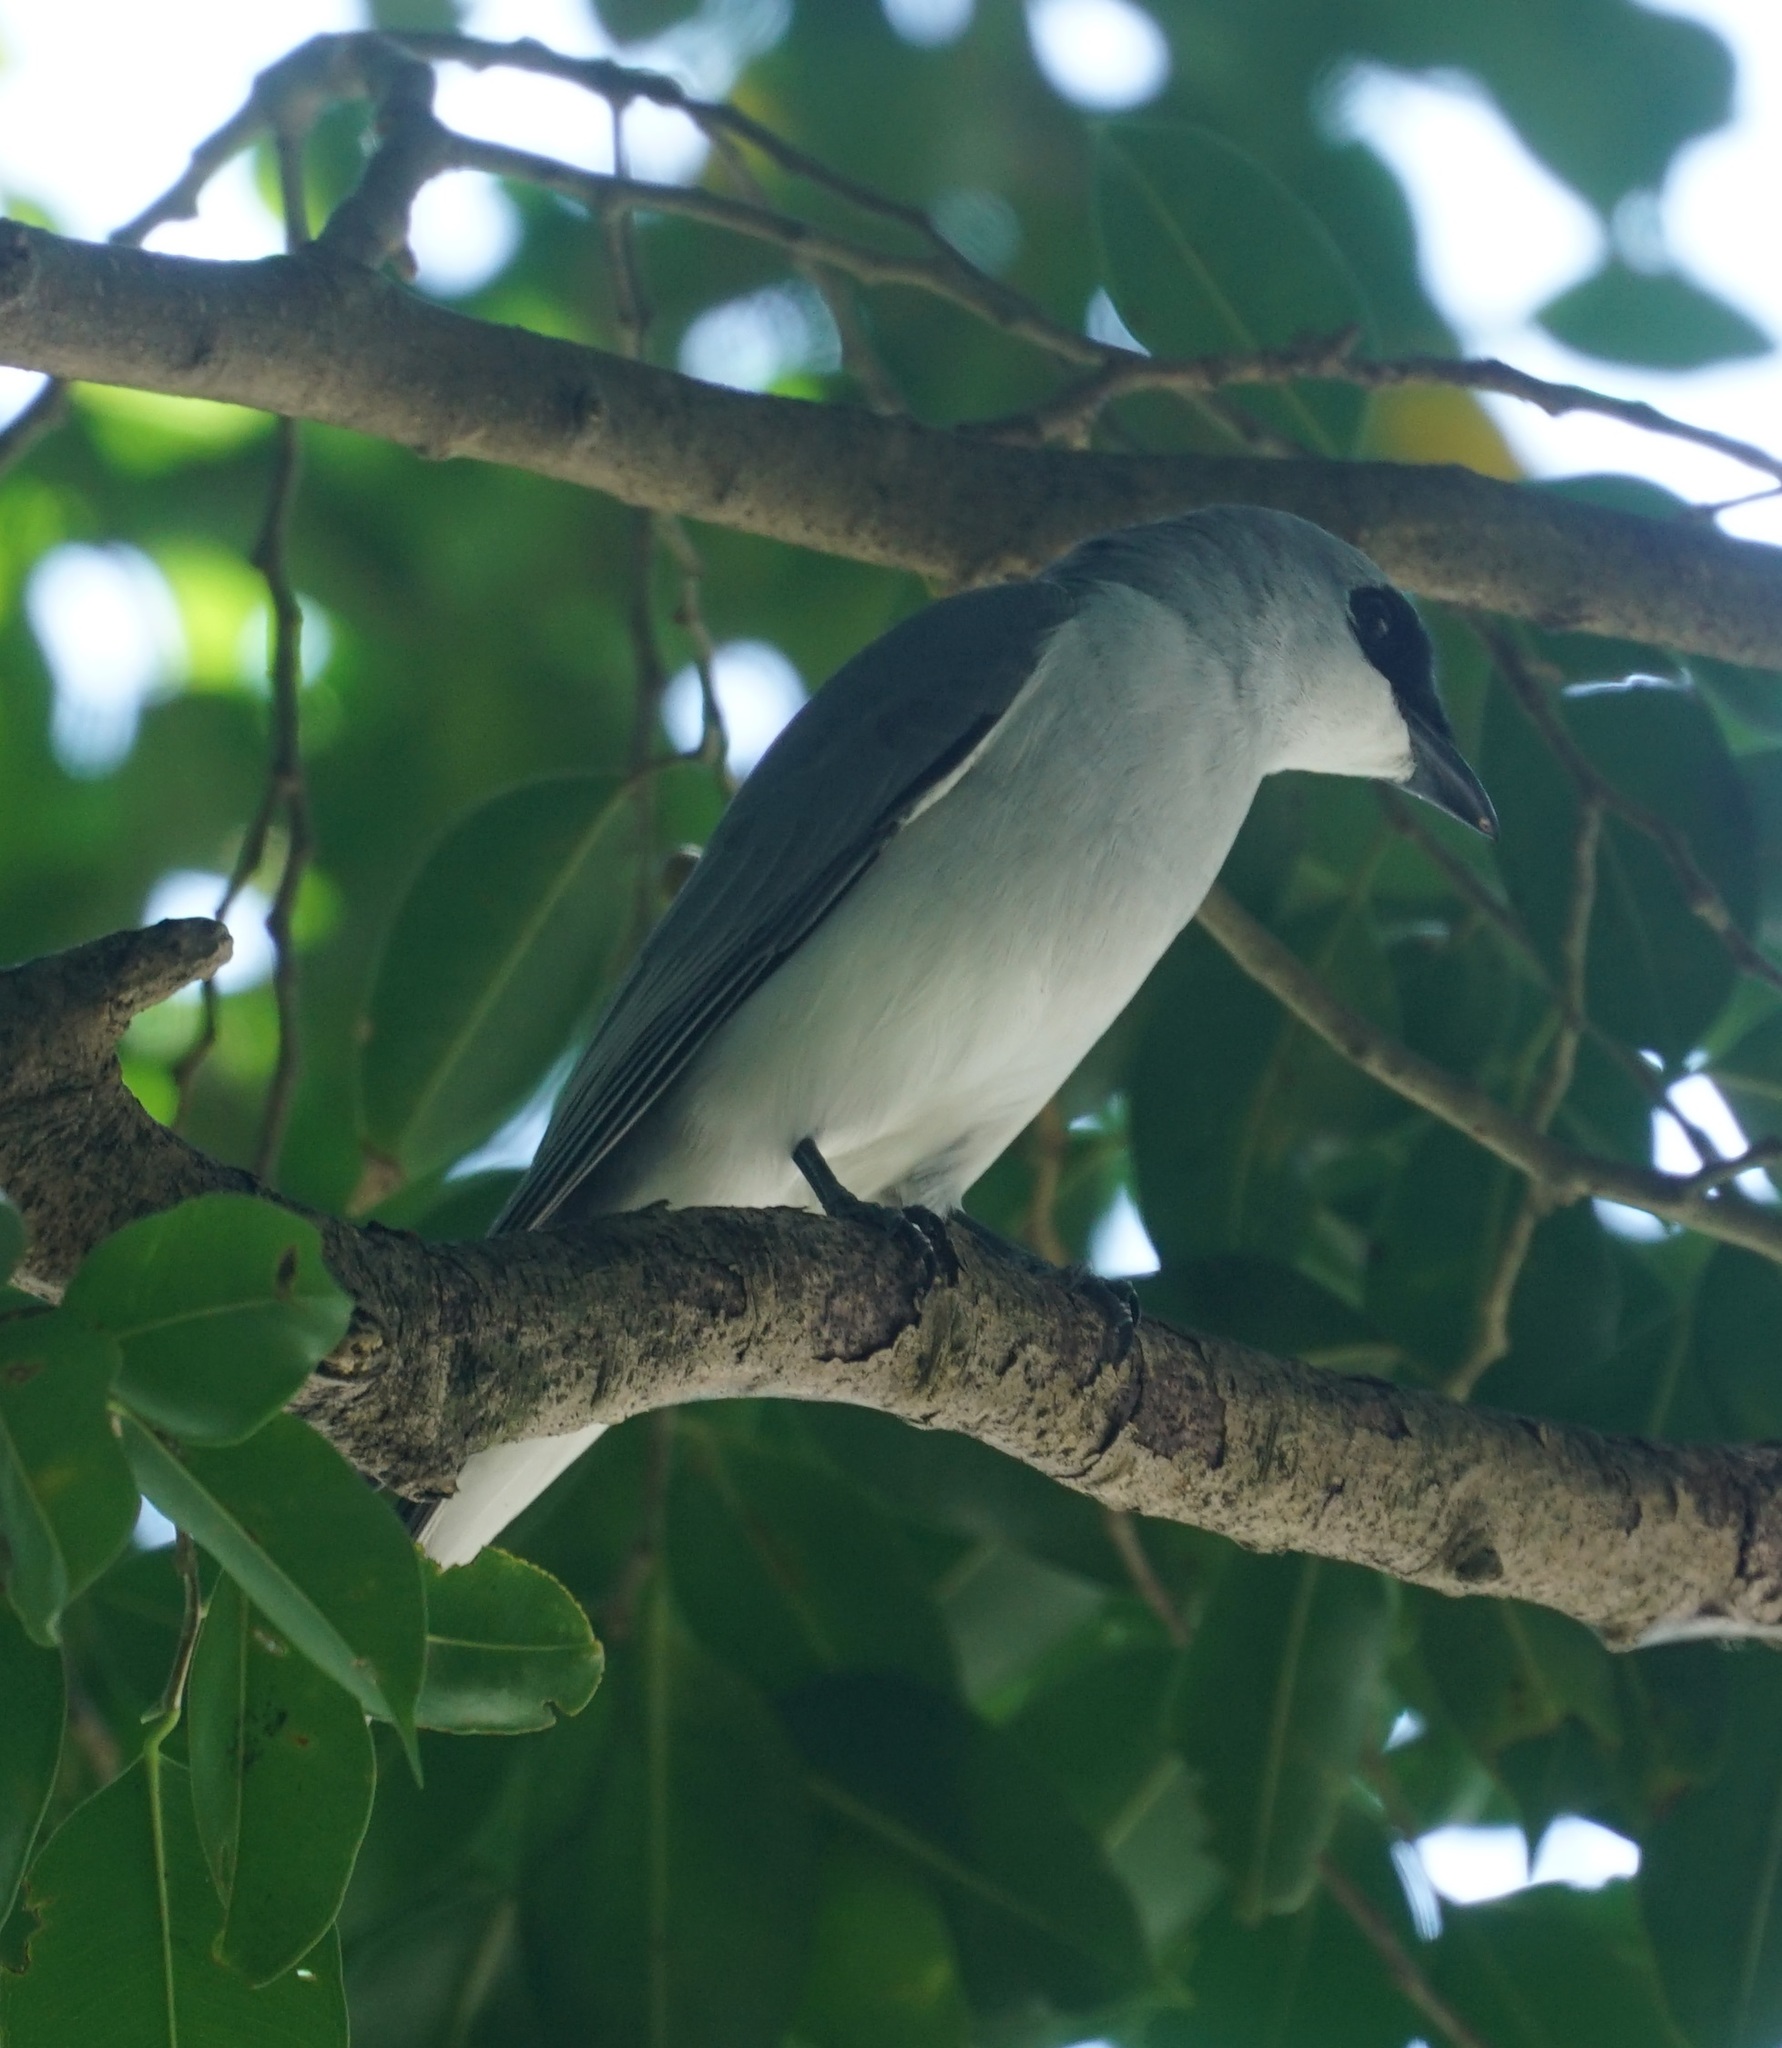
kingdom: Animalia
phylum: Chordata
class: Aves
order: Passeriformes
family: Campephagidae
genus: Coracina
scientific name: Coracina papuensis
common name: White-bellied cuckooshrike
